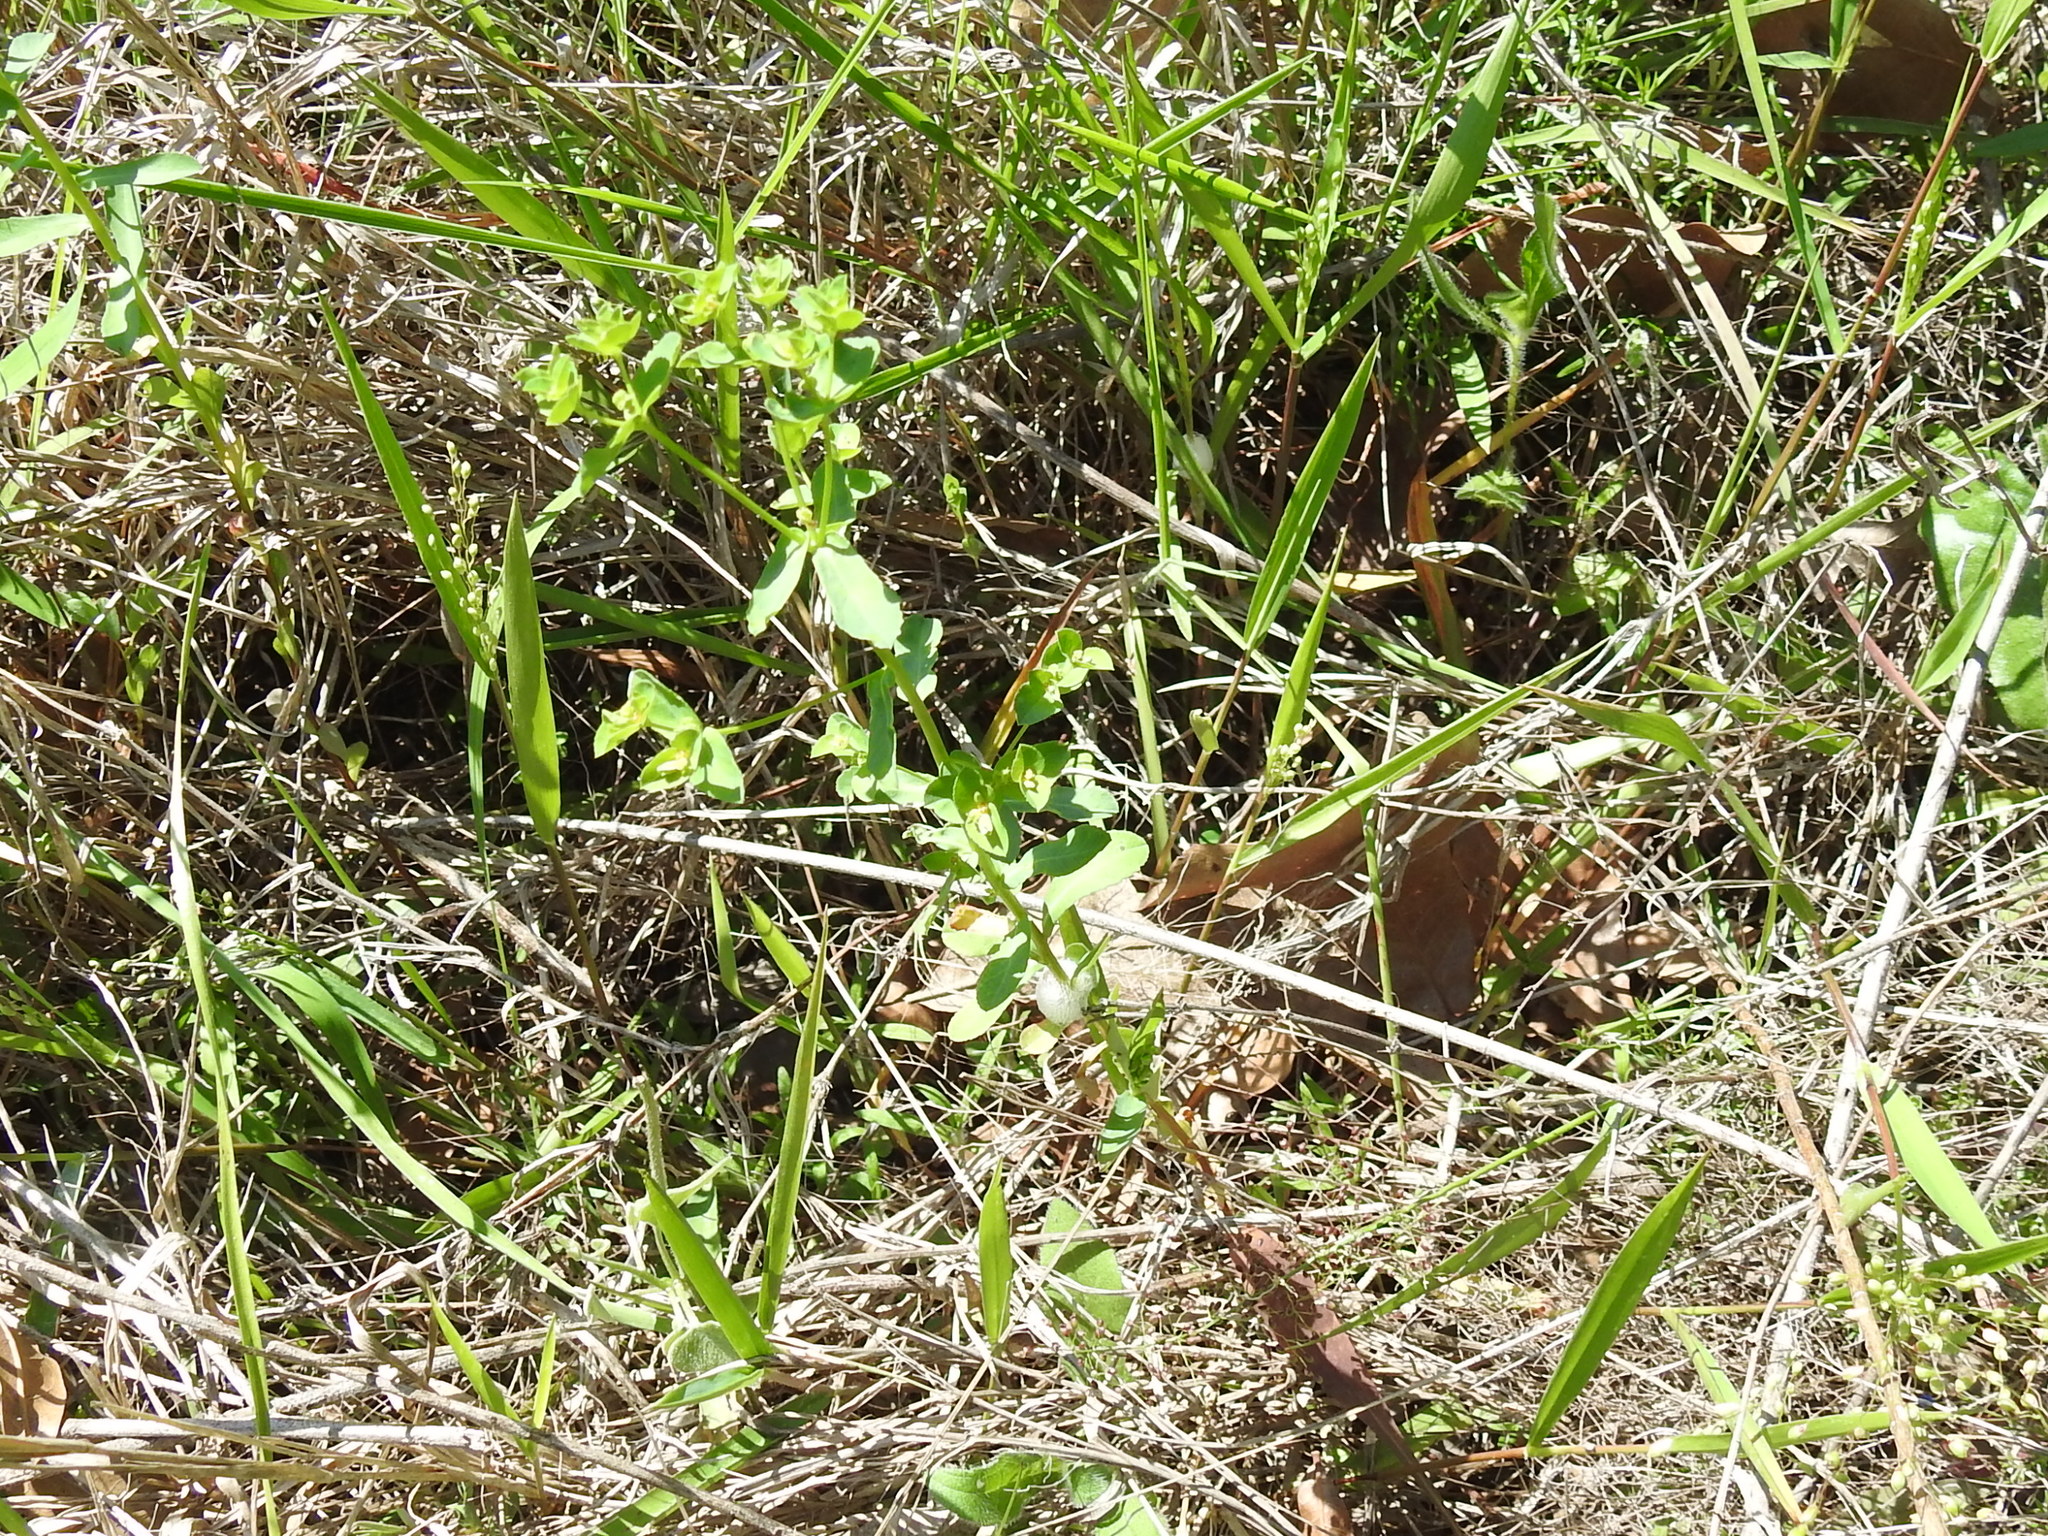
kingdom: Plantae
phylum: Tracheophyta
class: Magnoliopsida
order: Malpighiales
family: Euphorbiaceae
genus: Euphorbia
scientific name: Euphorbia spathulata
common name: Blunt spurge
